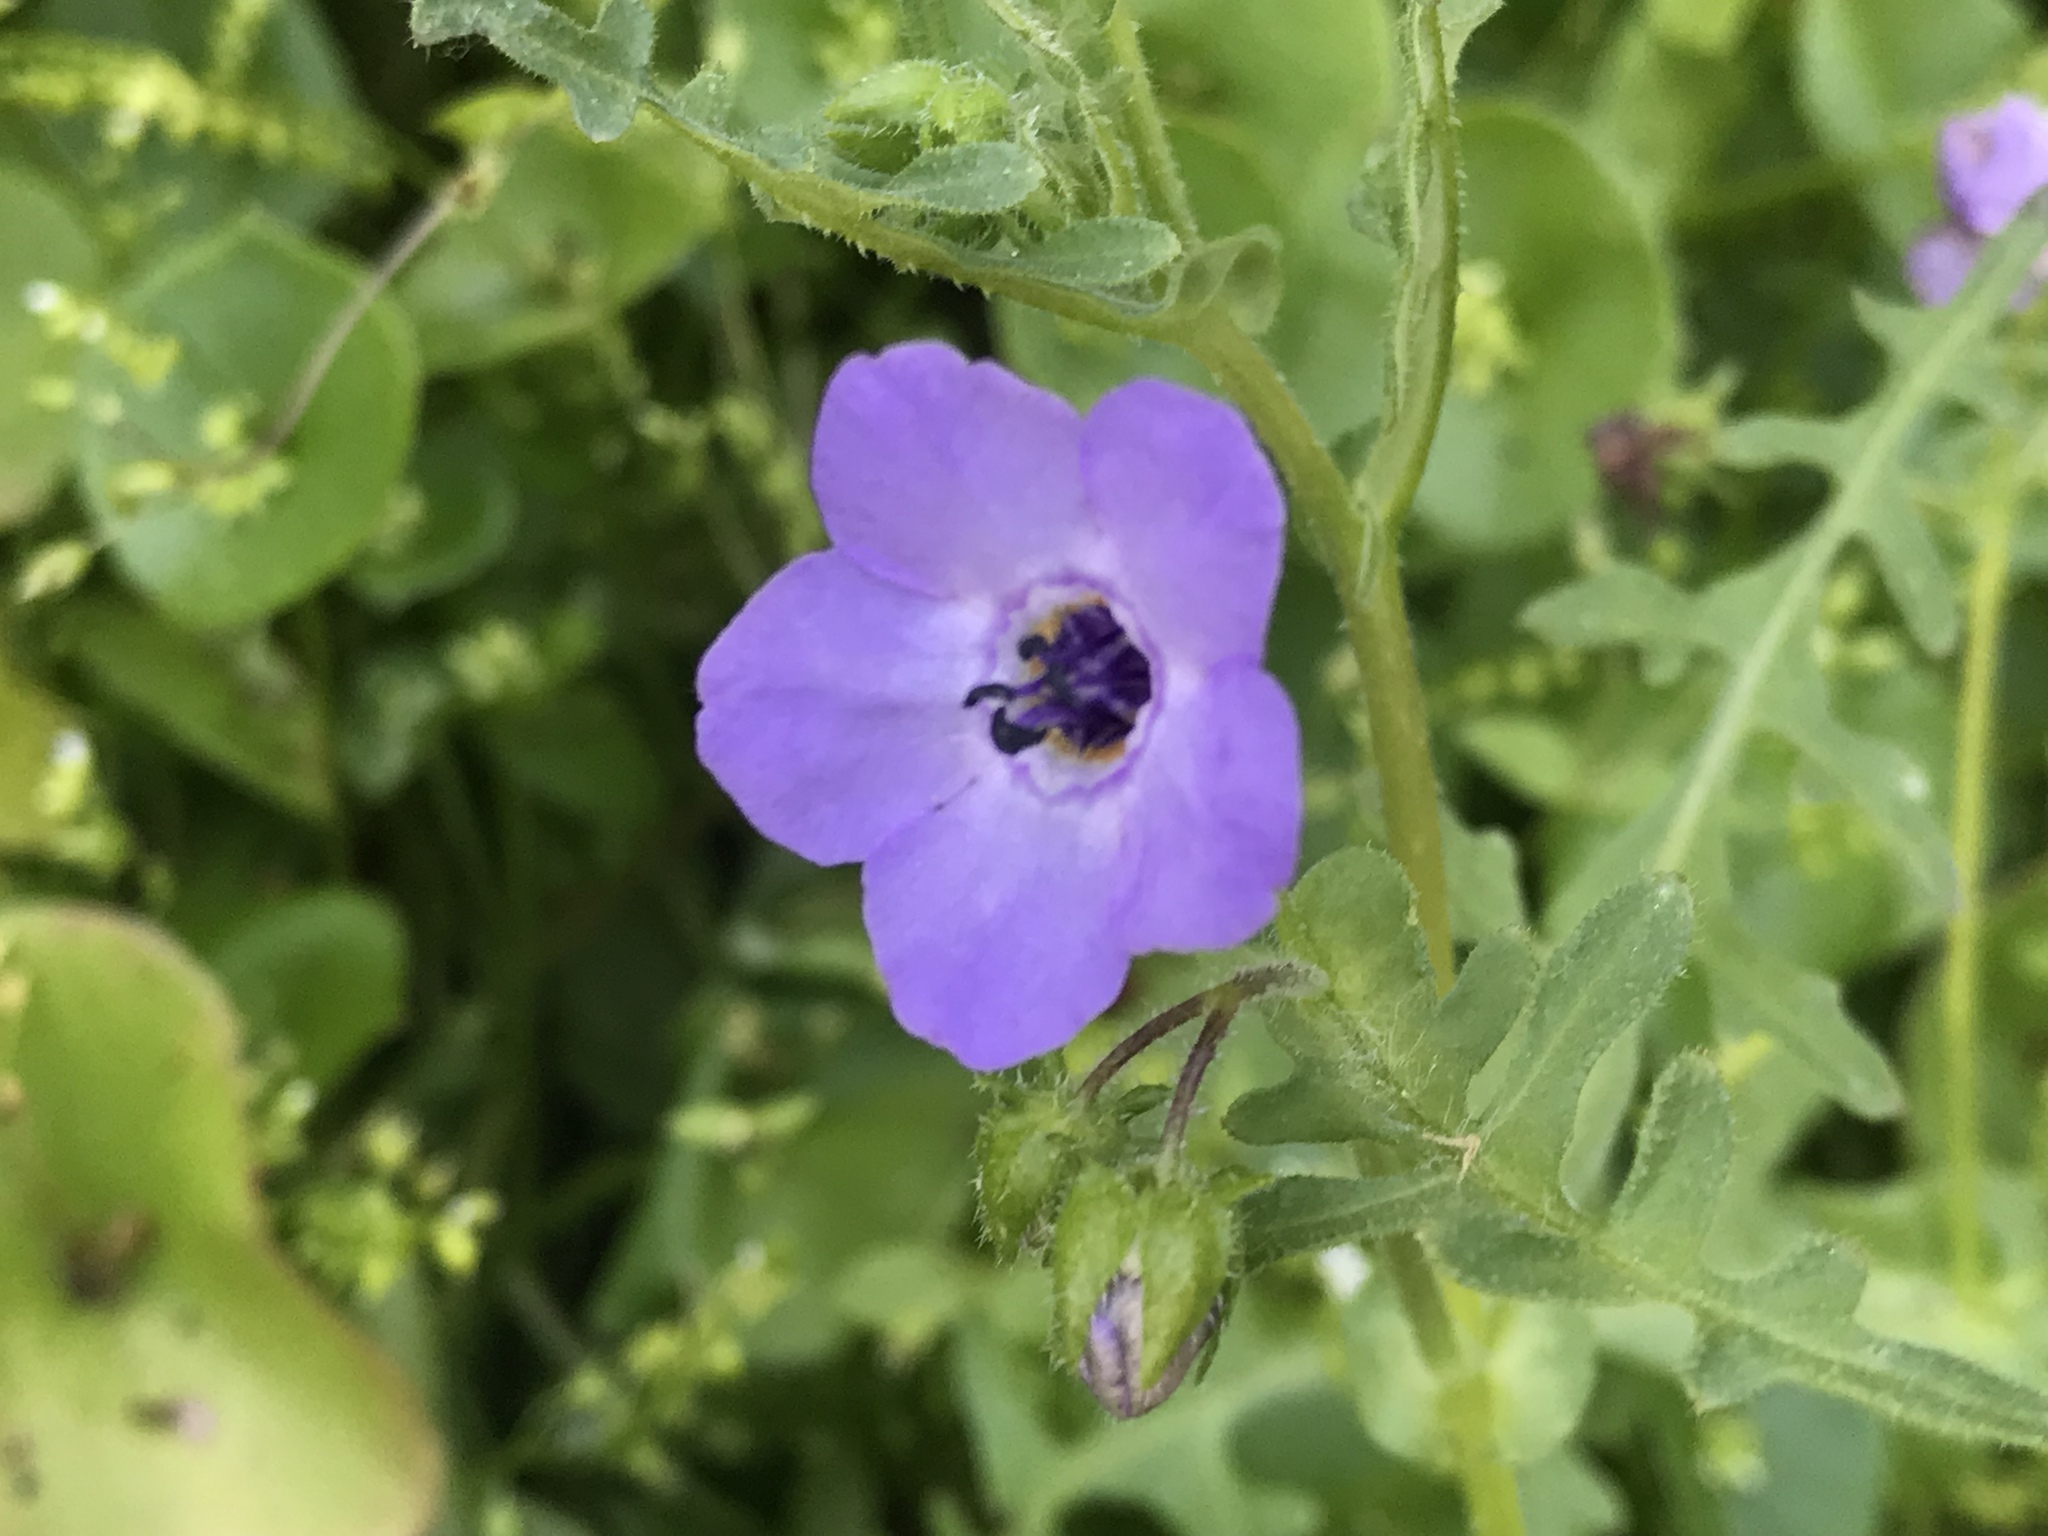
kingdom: Plantae
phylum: Tracheophyta
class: Magnoliopsida
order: Boraginales
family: Hydrophyllaceae
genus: Pholistoma
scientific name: Pholistoma auritum
